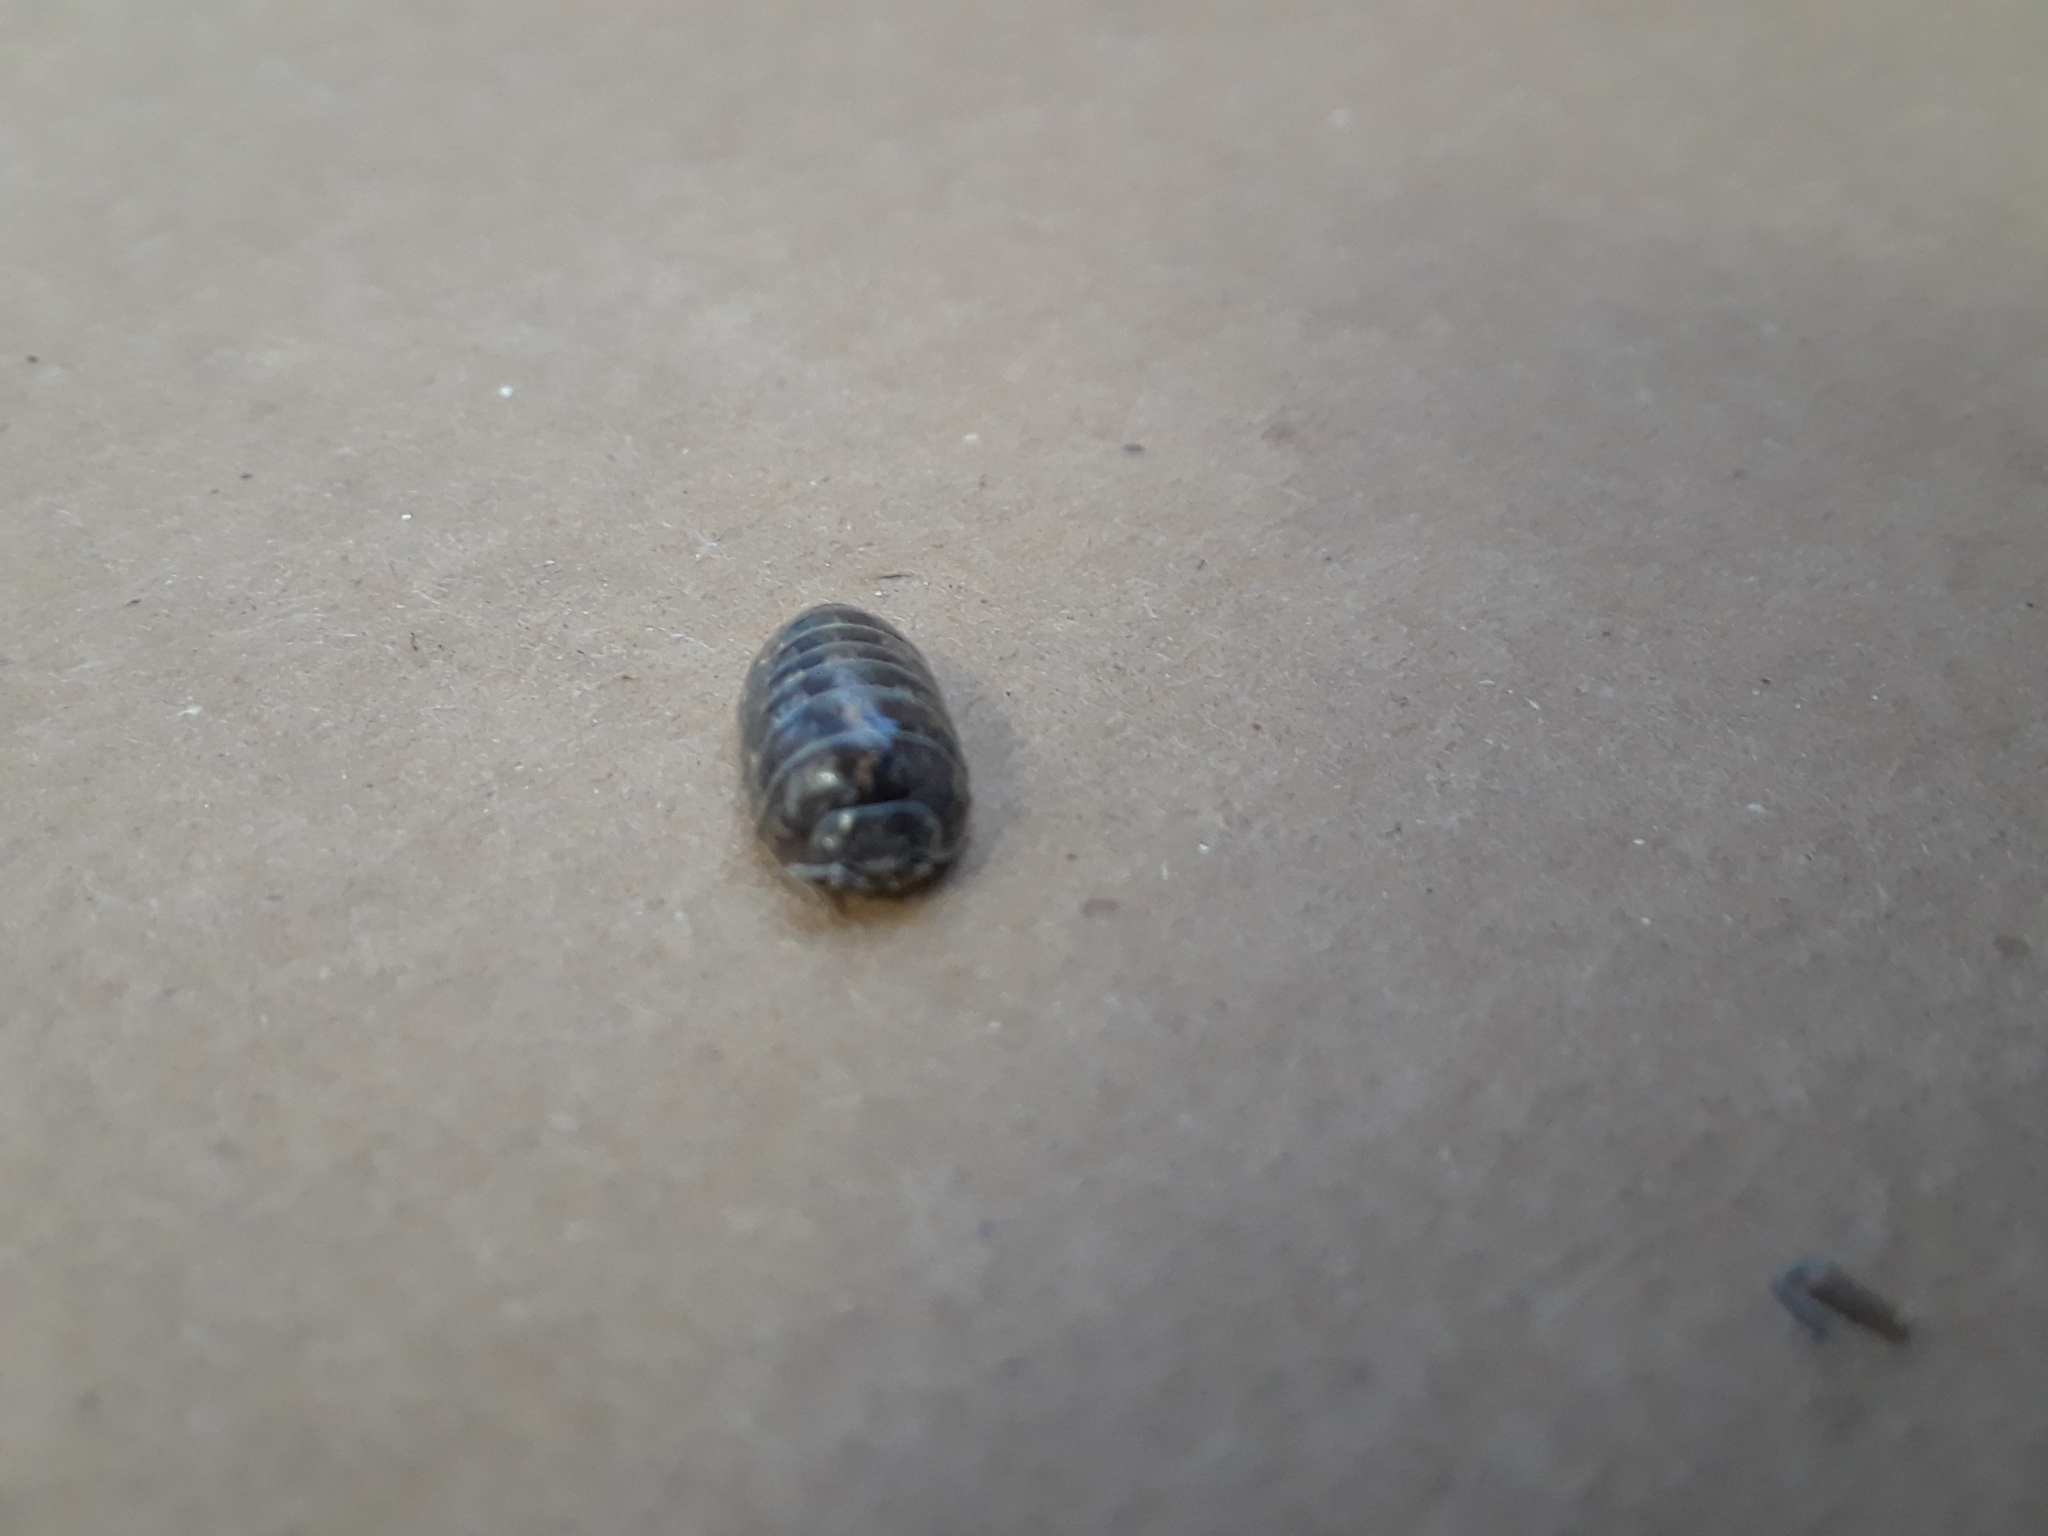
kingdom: Animalia
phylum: Arthropoda
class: Malacostraca
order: Isopoda
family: Armadillidiidae
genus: Armadillidium
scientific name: Armadillidium vulgare
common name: Common pill woodlouse
